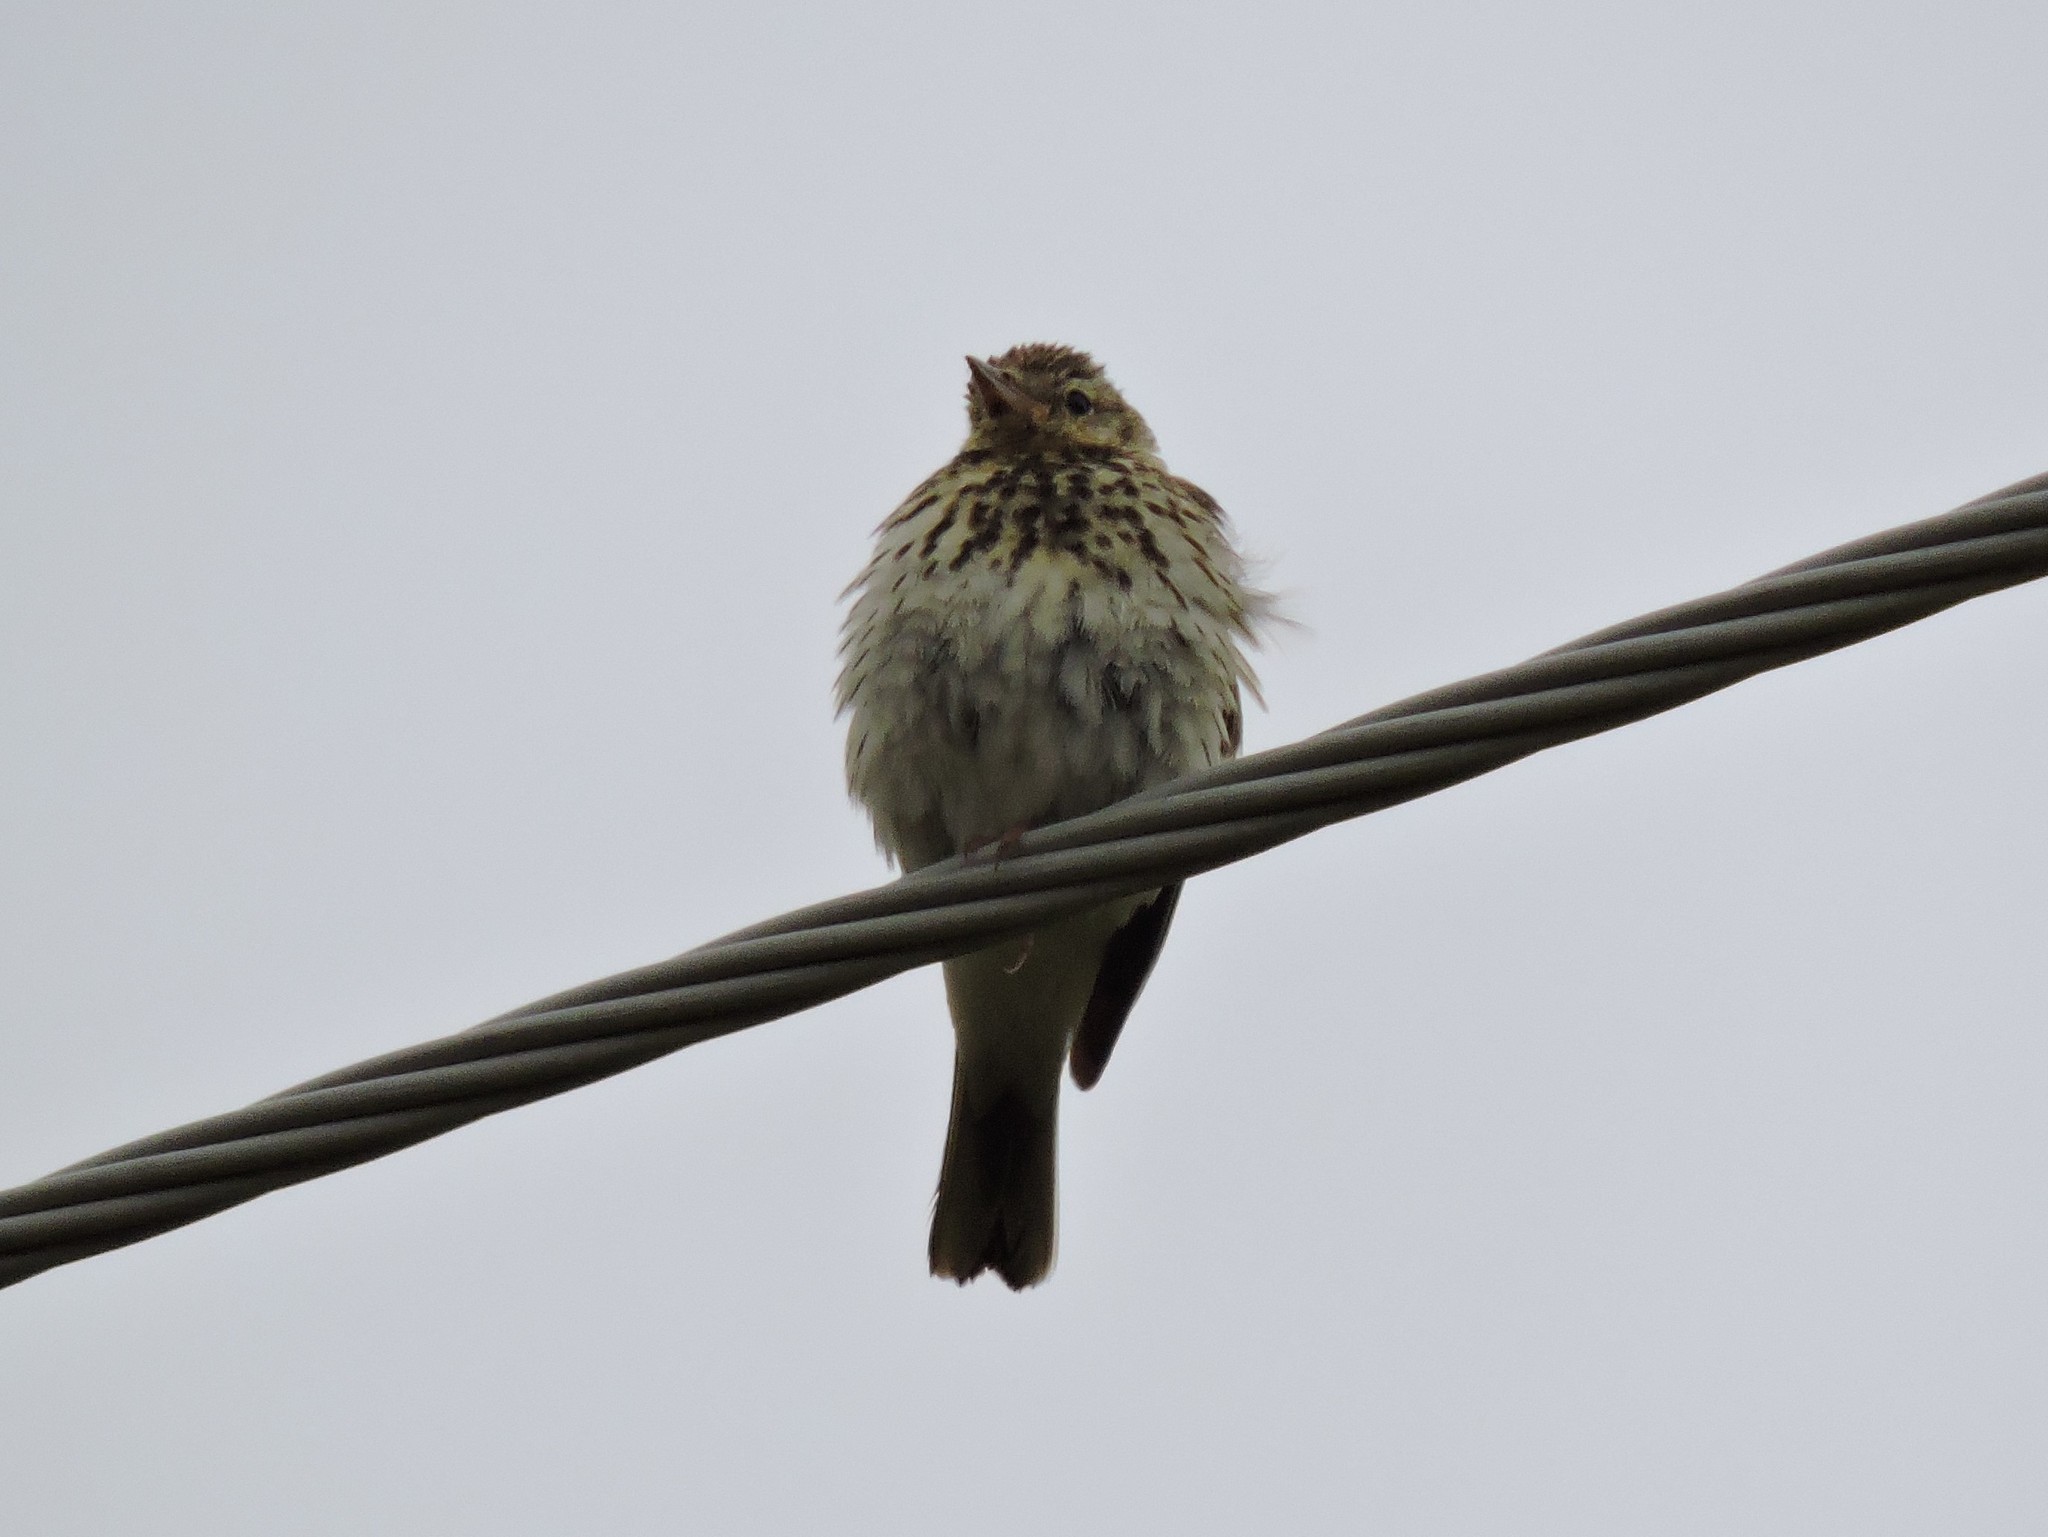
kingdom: Animalia
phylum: Chordata
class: Aves
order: Passeriformes
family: Motacillidae
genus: Anthus
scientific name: Anthus trivialis
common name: Tree pipit
